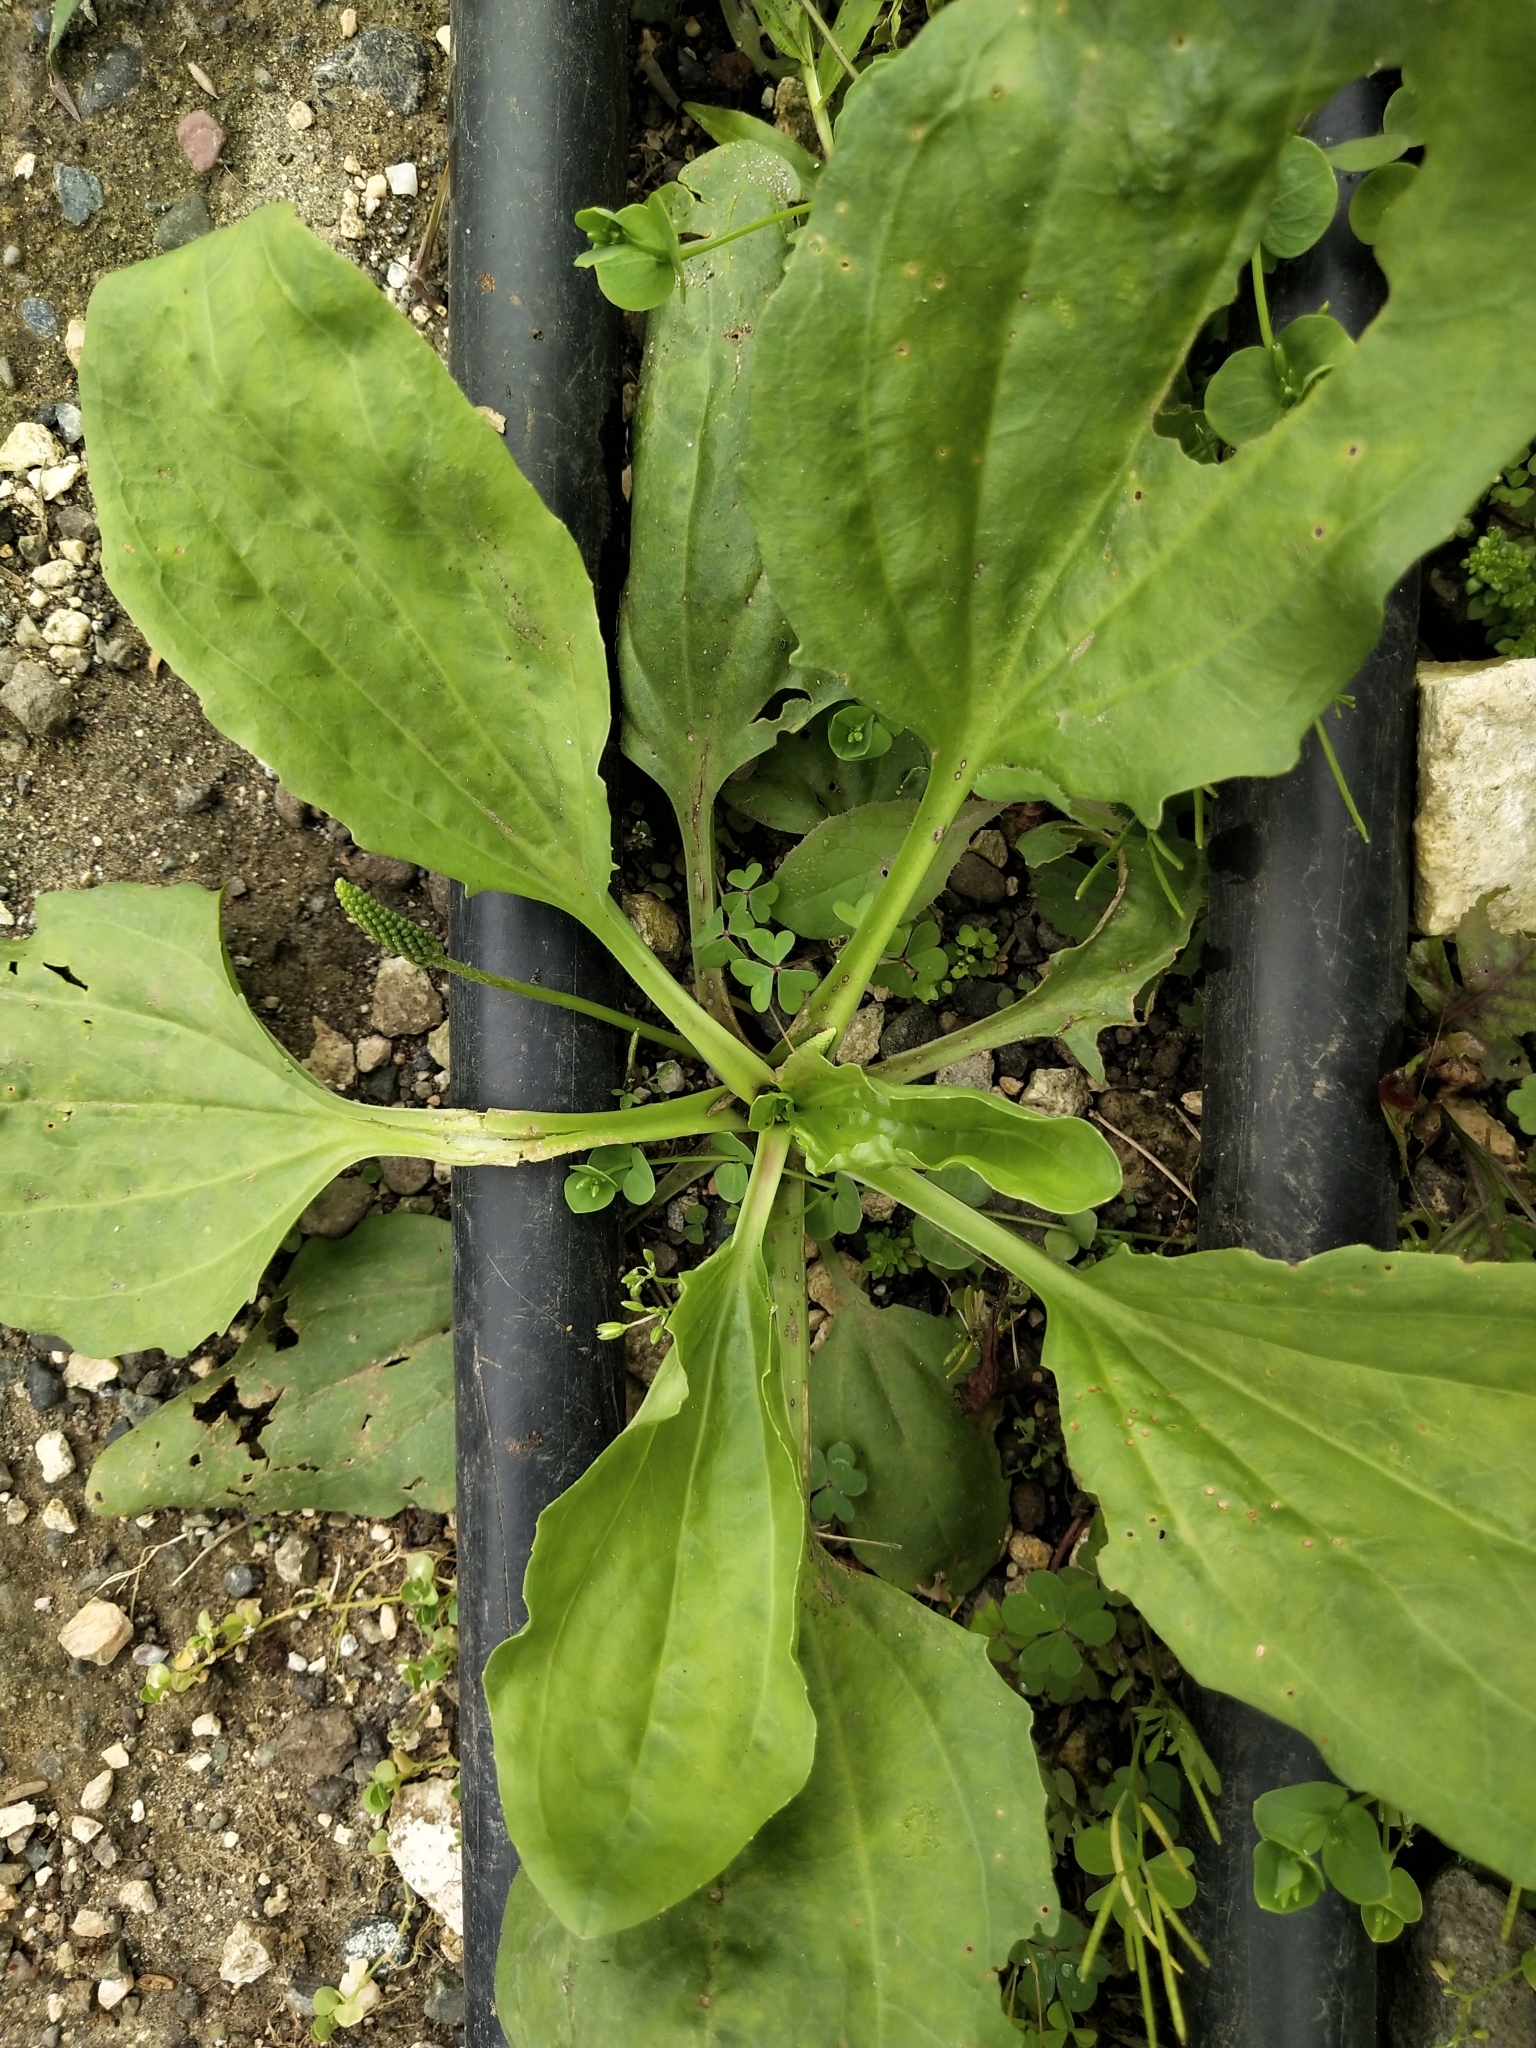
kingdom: Plantae
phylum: Tracheophyta
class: Magnoliopsida
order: Lamiales
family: Plantaginaceae
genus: Plantago
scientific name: Plantago major
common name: Common plantain
